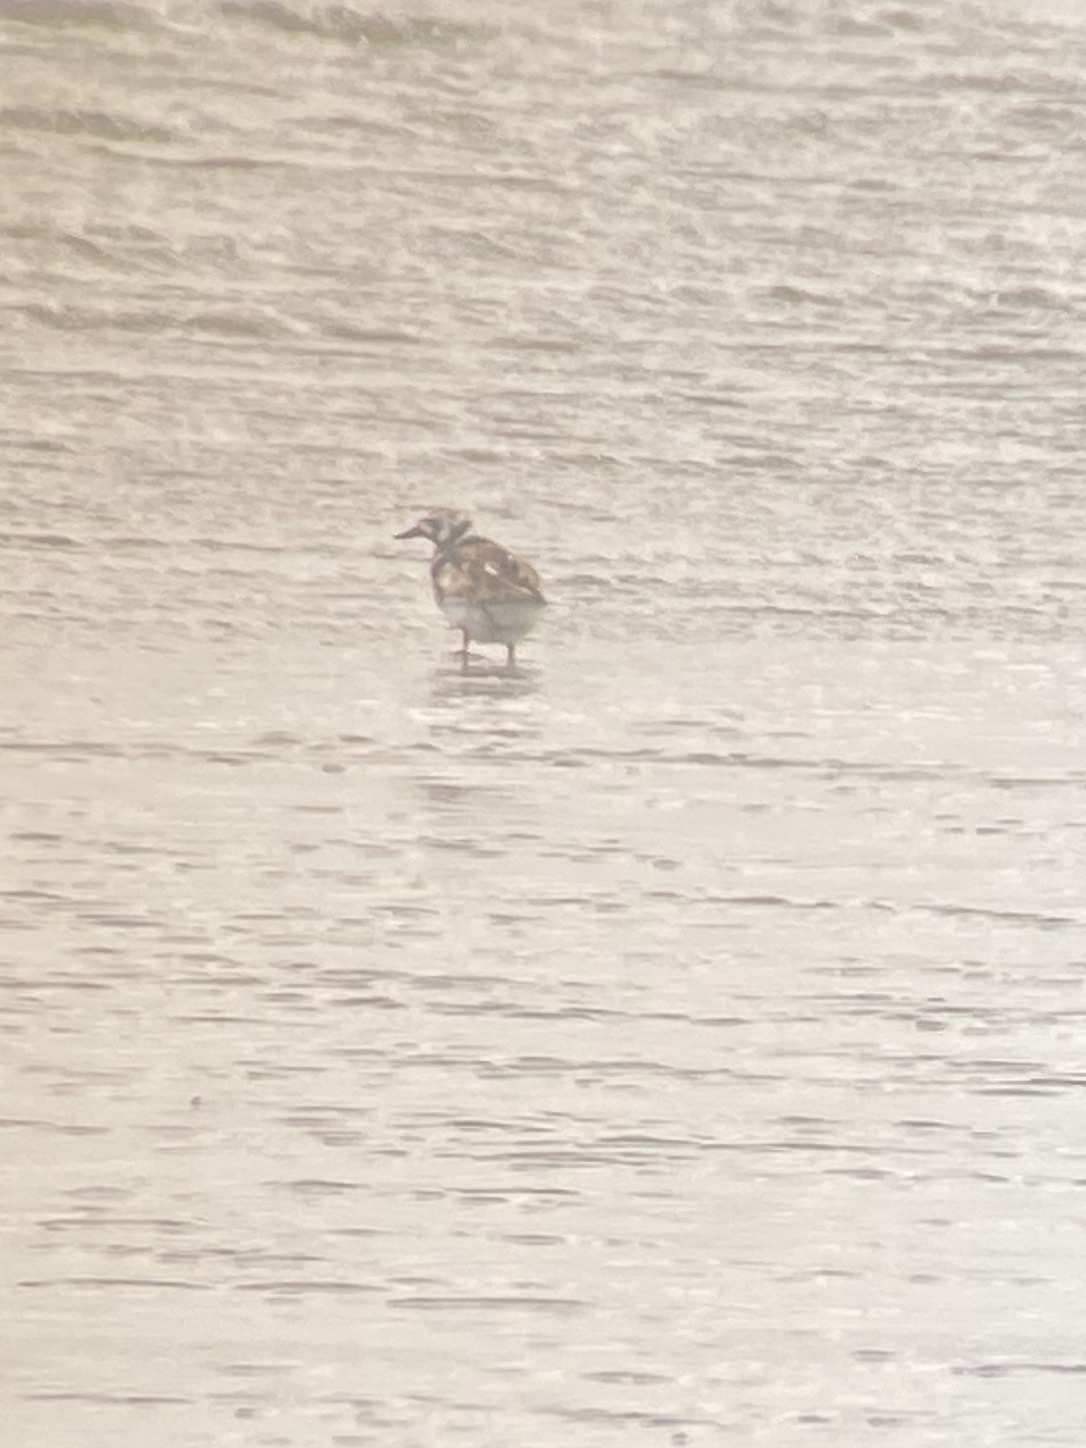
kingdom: Animalia
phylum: Chordata
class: Aves
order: Charadriiformes
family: Scolopacidae
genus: Arenaria
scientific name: Arenaria interpres
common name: Ruddy turnstone
